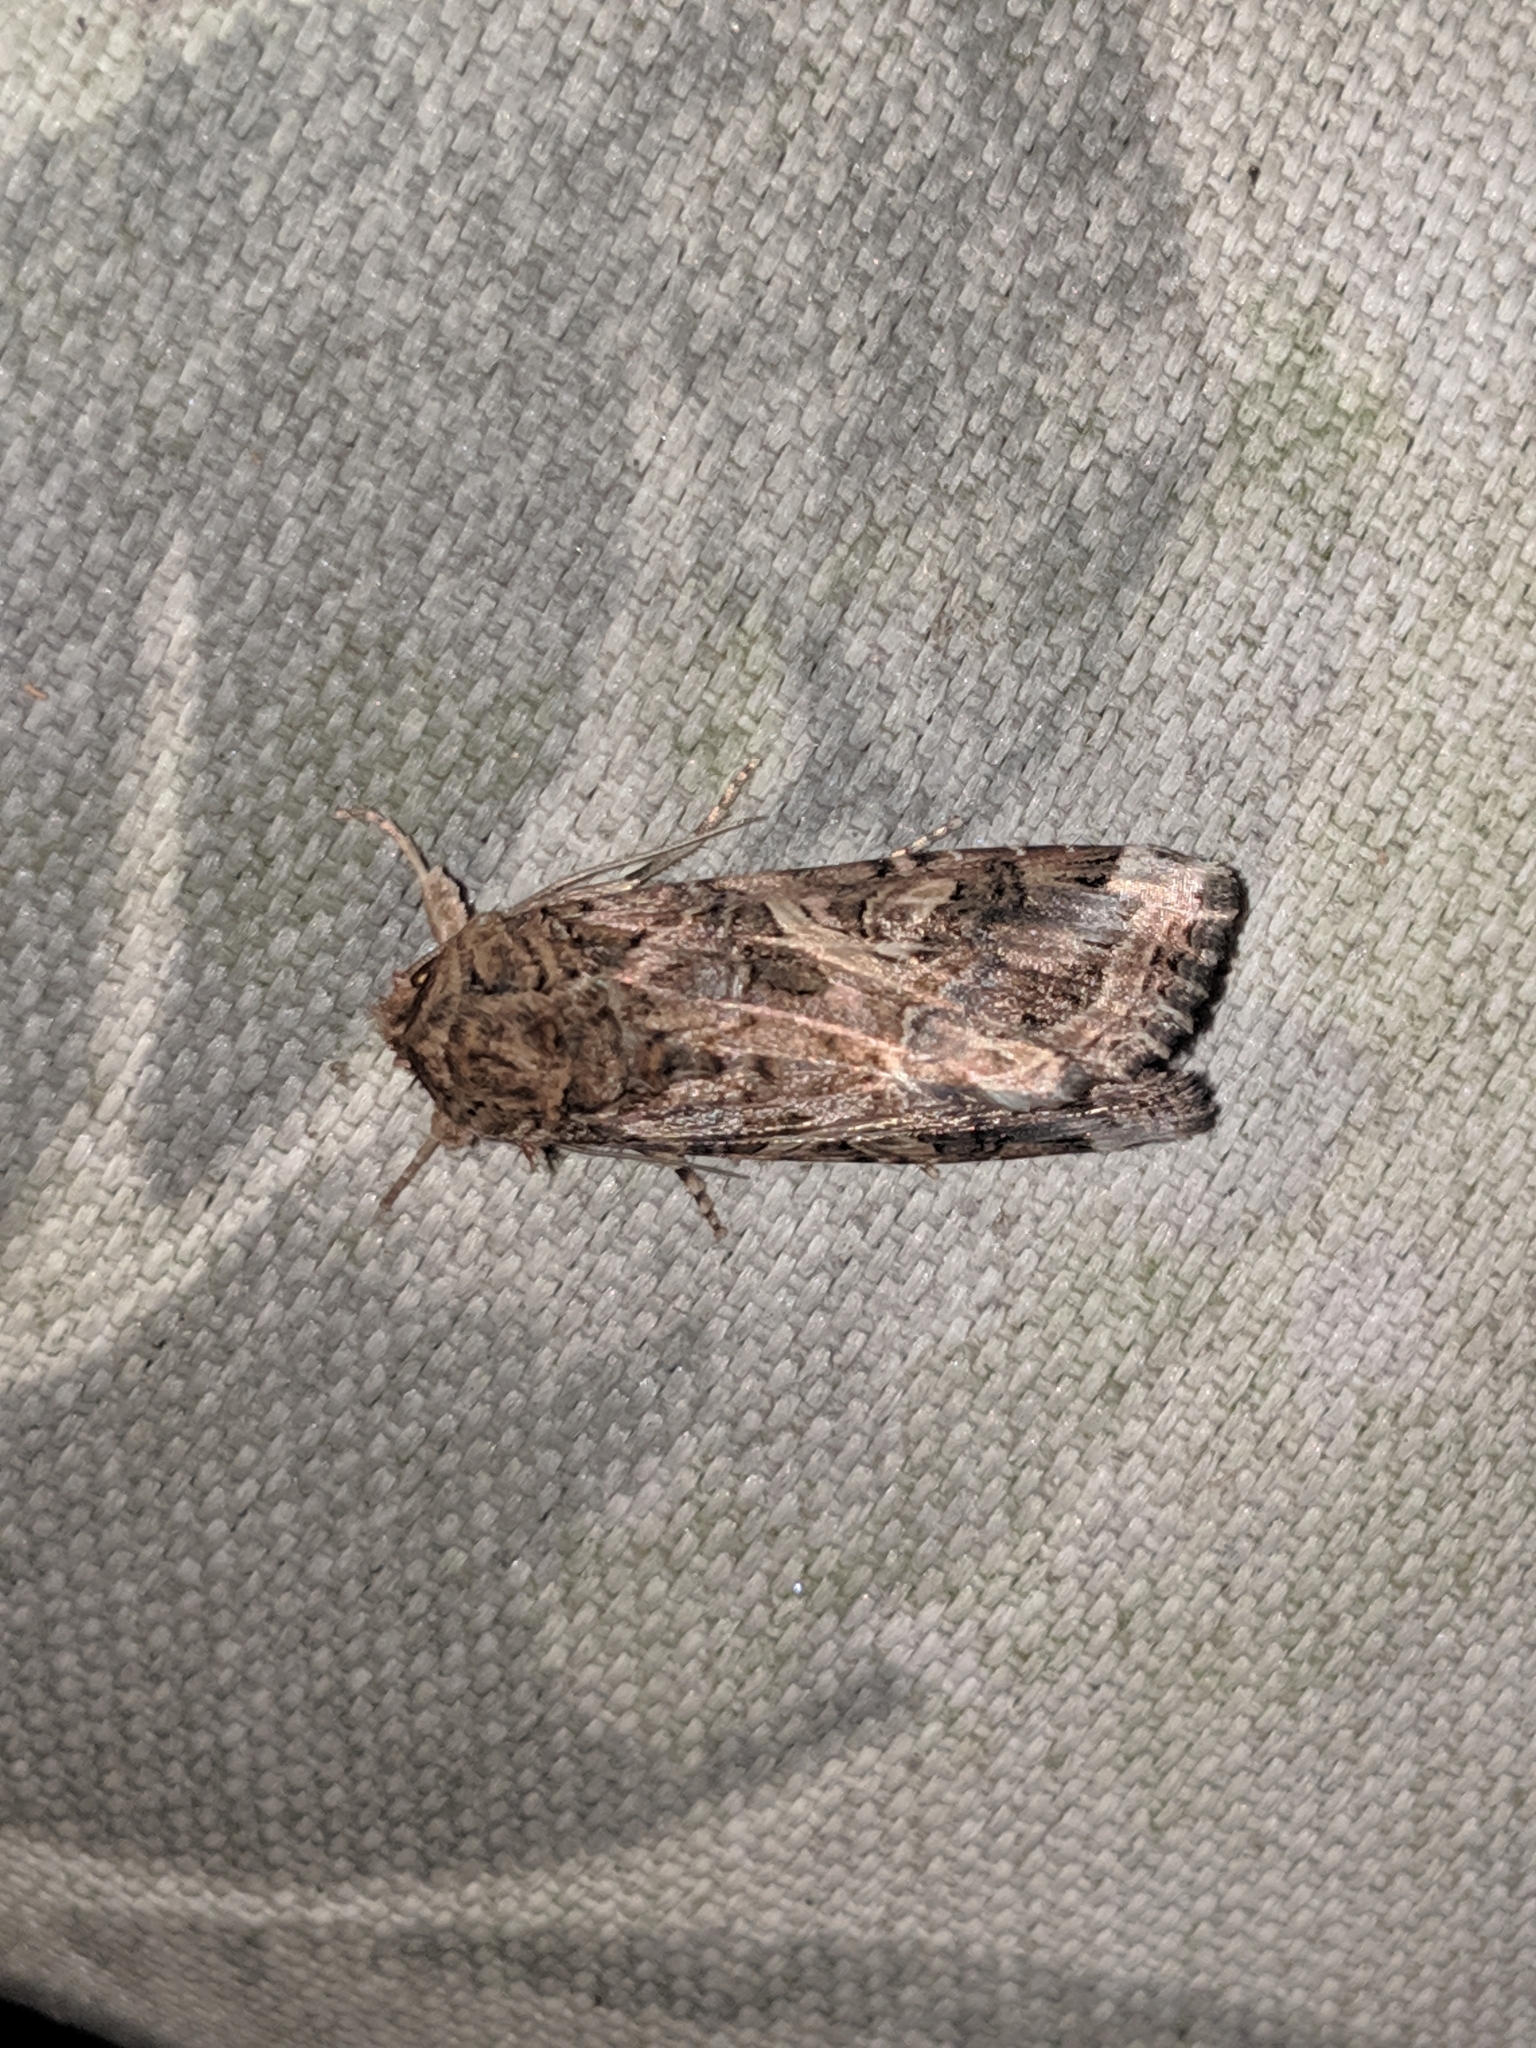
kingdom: Animalia
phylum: Arthropoda
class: Insecta
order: Lepidoptera
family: Noctuidae
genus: Spodoptera
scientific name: Spodoptera ornithogalli
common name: Yellow-striped armyworm
